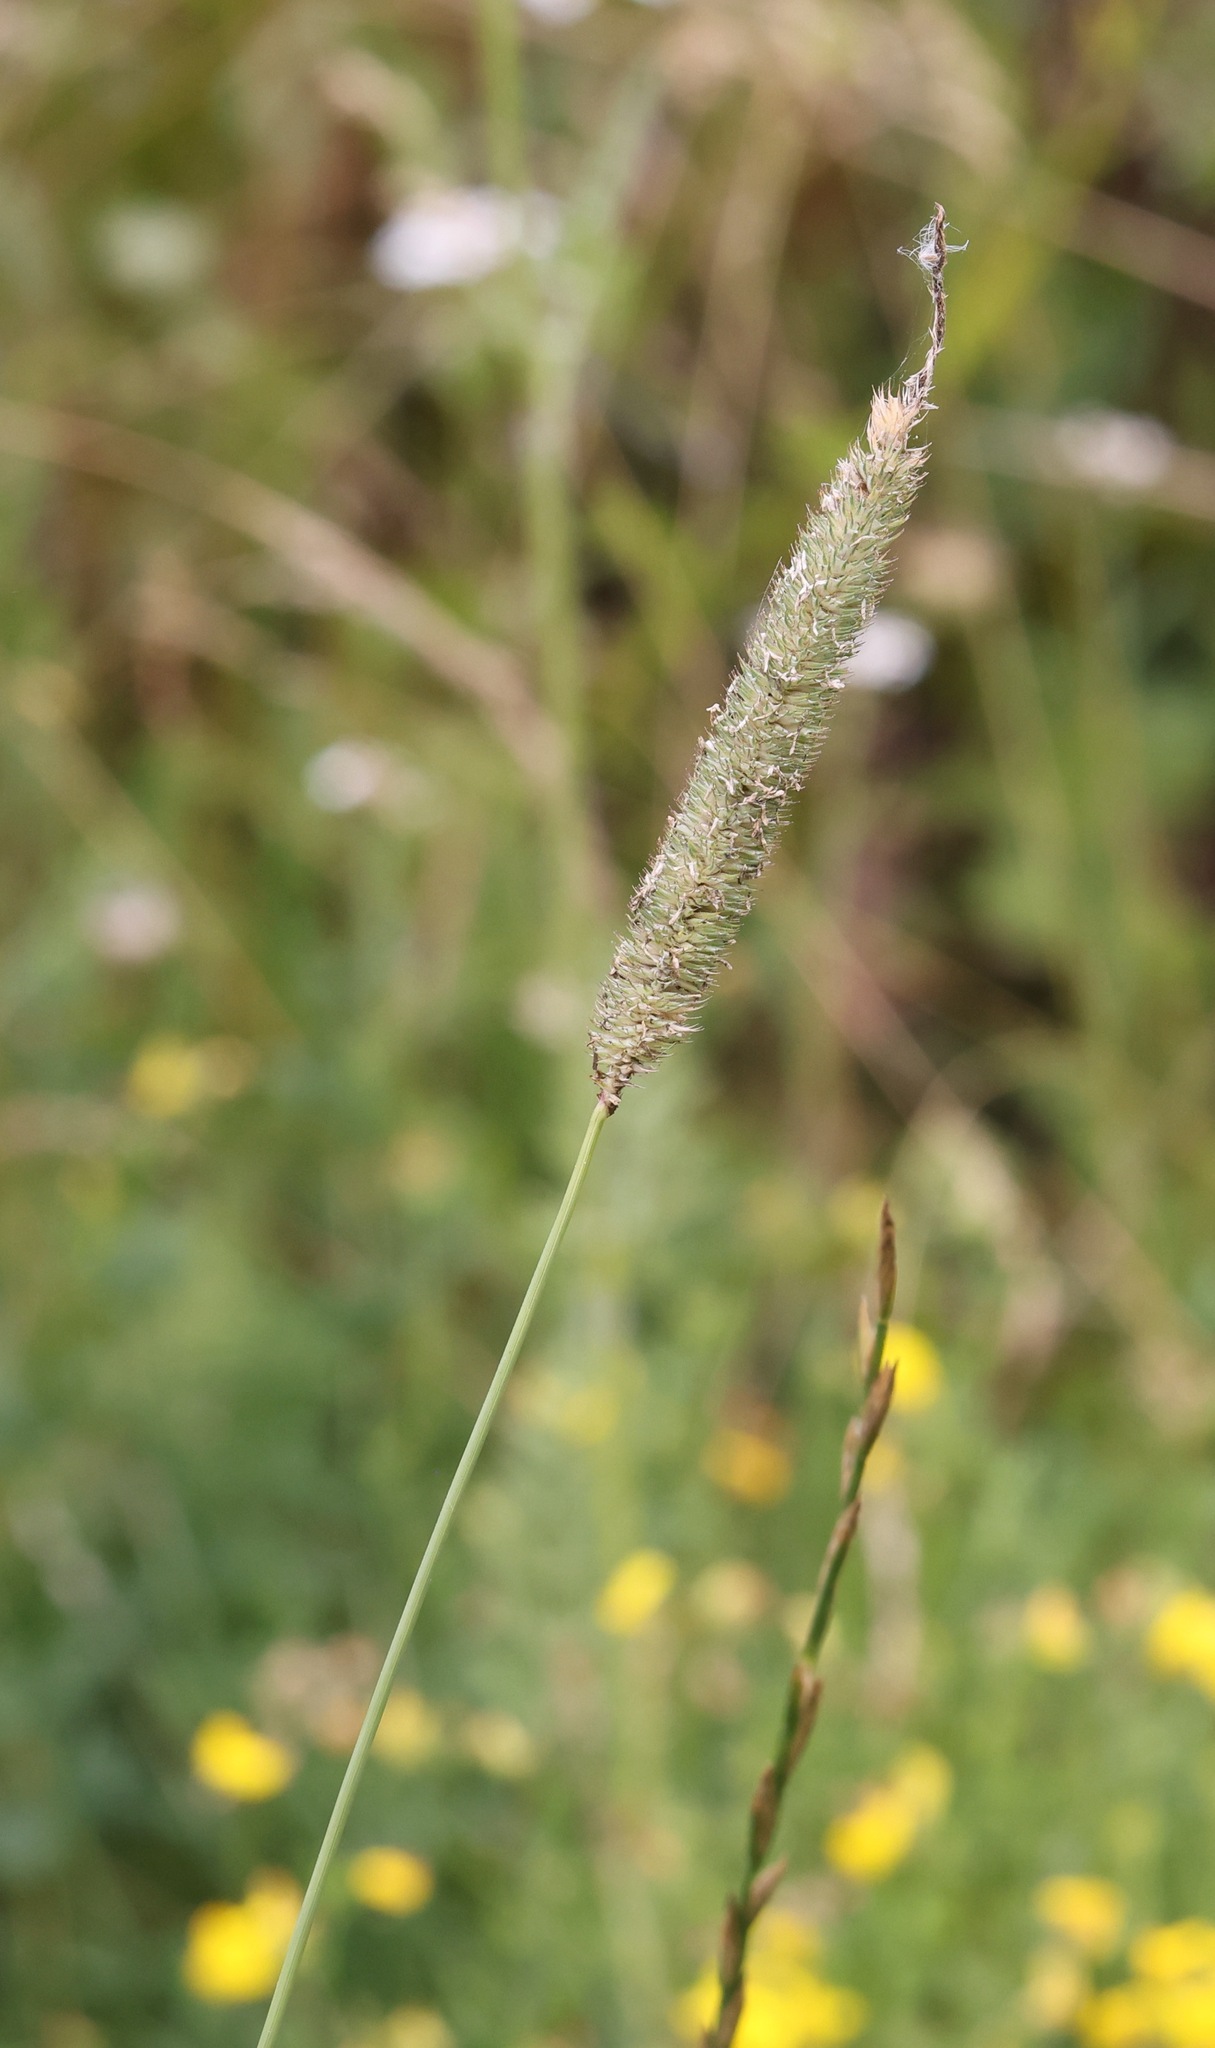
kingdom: Plantae
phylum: Tracheophyta
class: Liliopsida
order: Poales
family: Poaceae
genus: Phleum
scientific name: Phleum pratense
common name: Timothy grass
